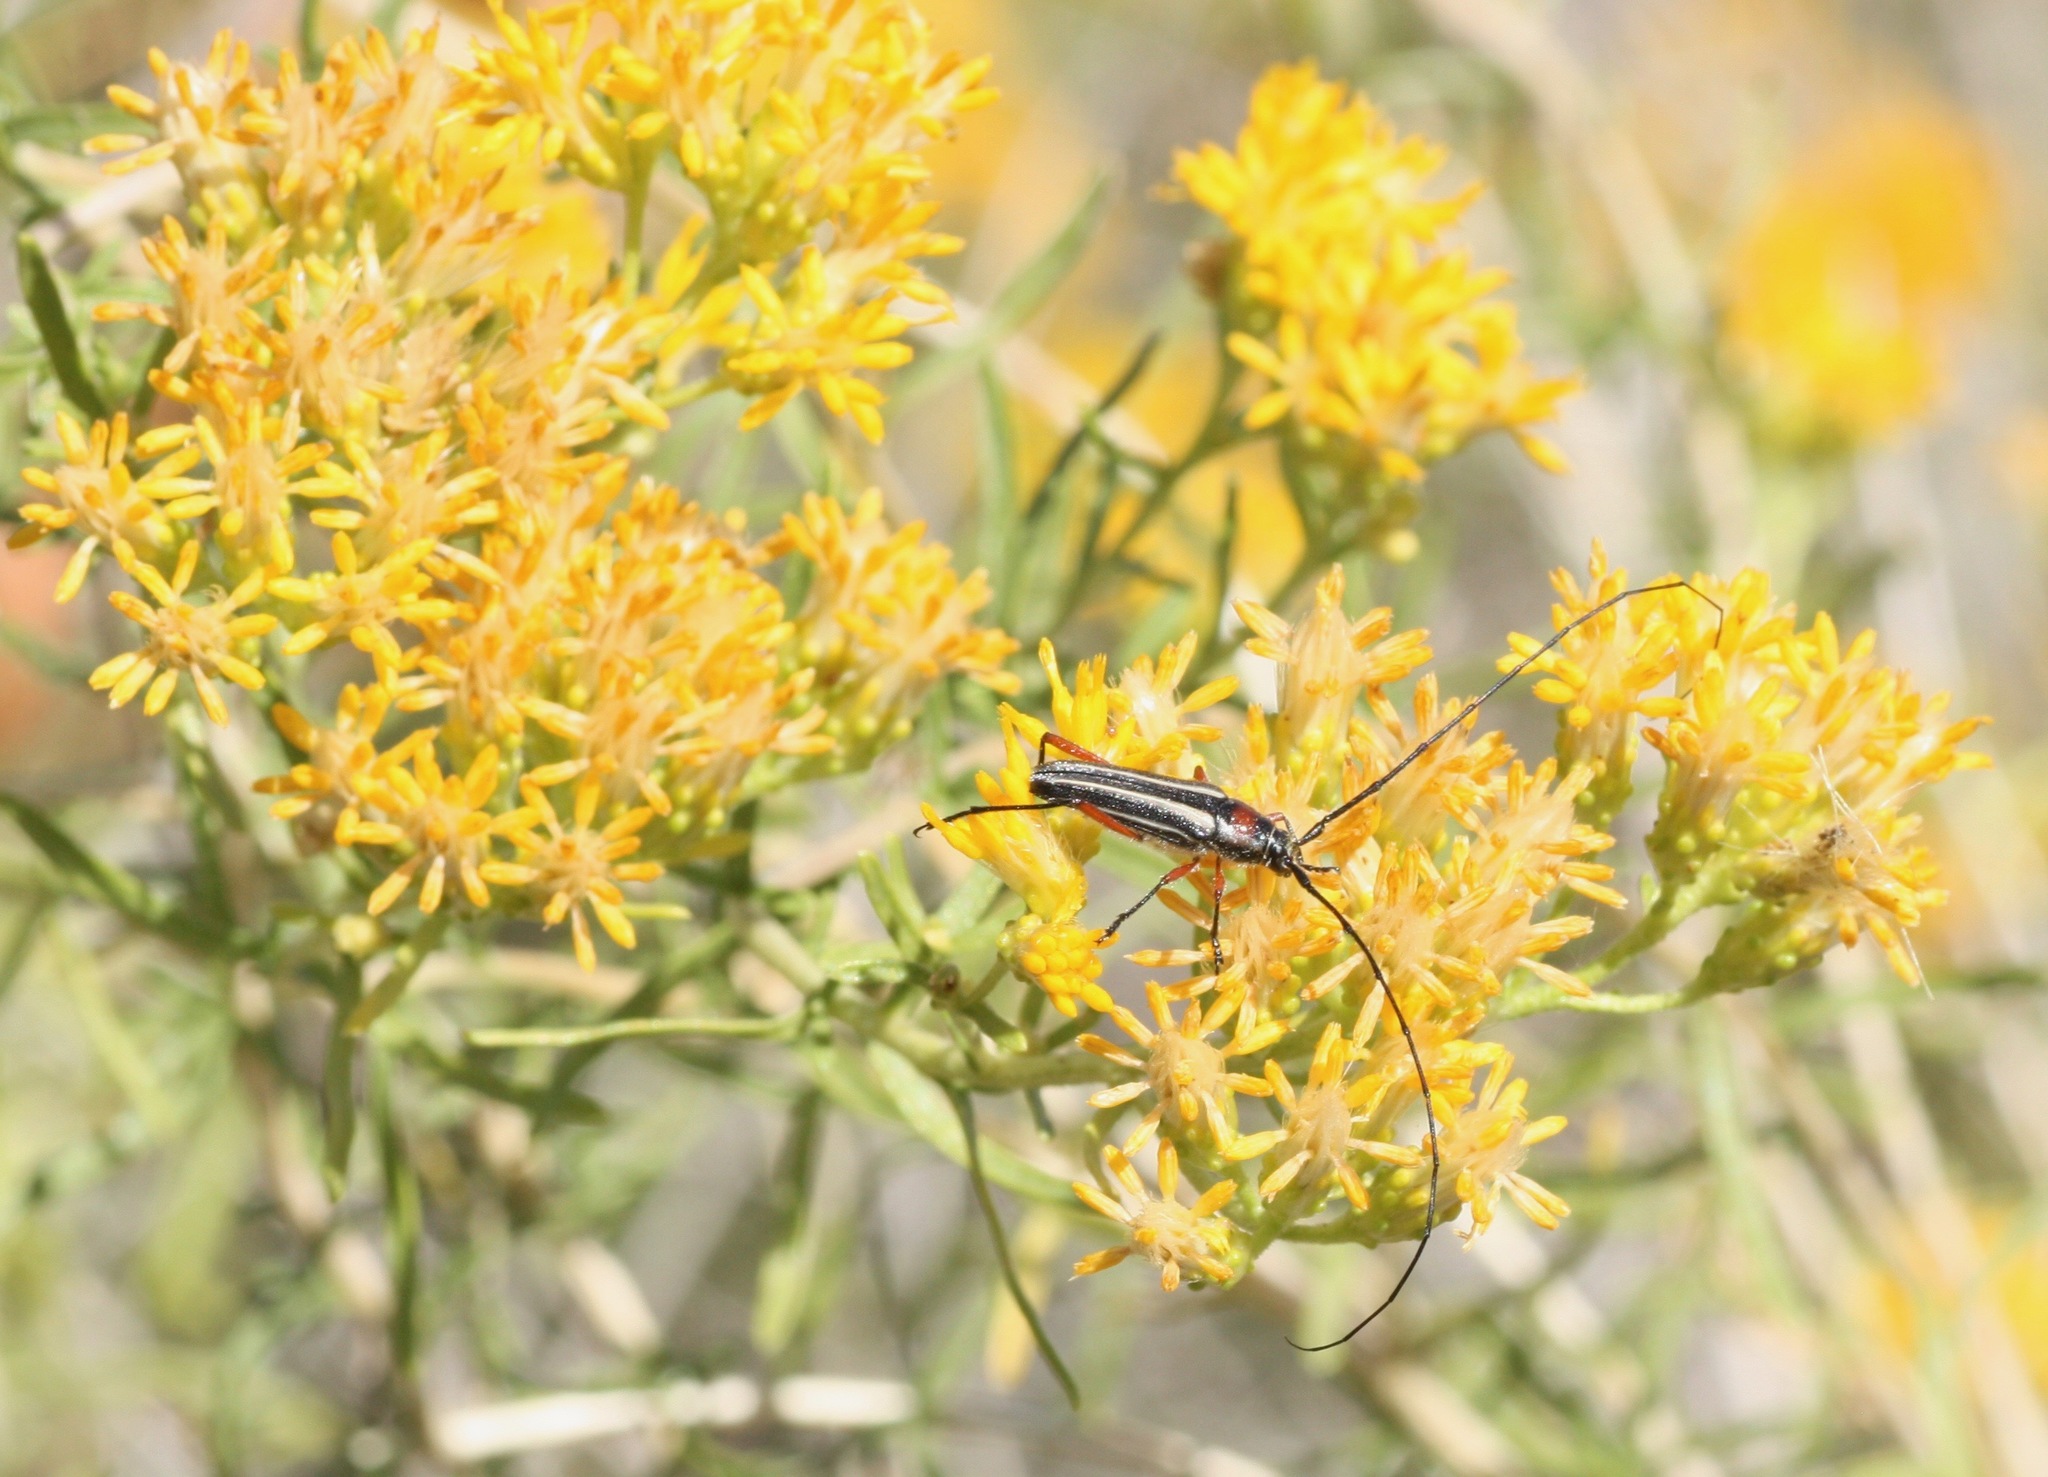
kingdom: Animalia
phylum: Arthropoda
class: Insecta
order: Coleoptera
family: Cerambycidae
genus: Sphaenothecus
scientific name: Sphaenothecus bilineatus
